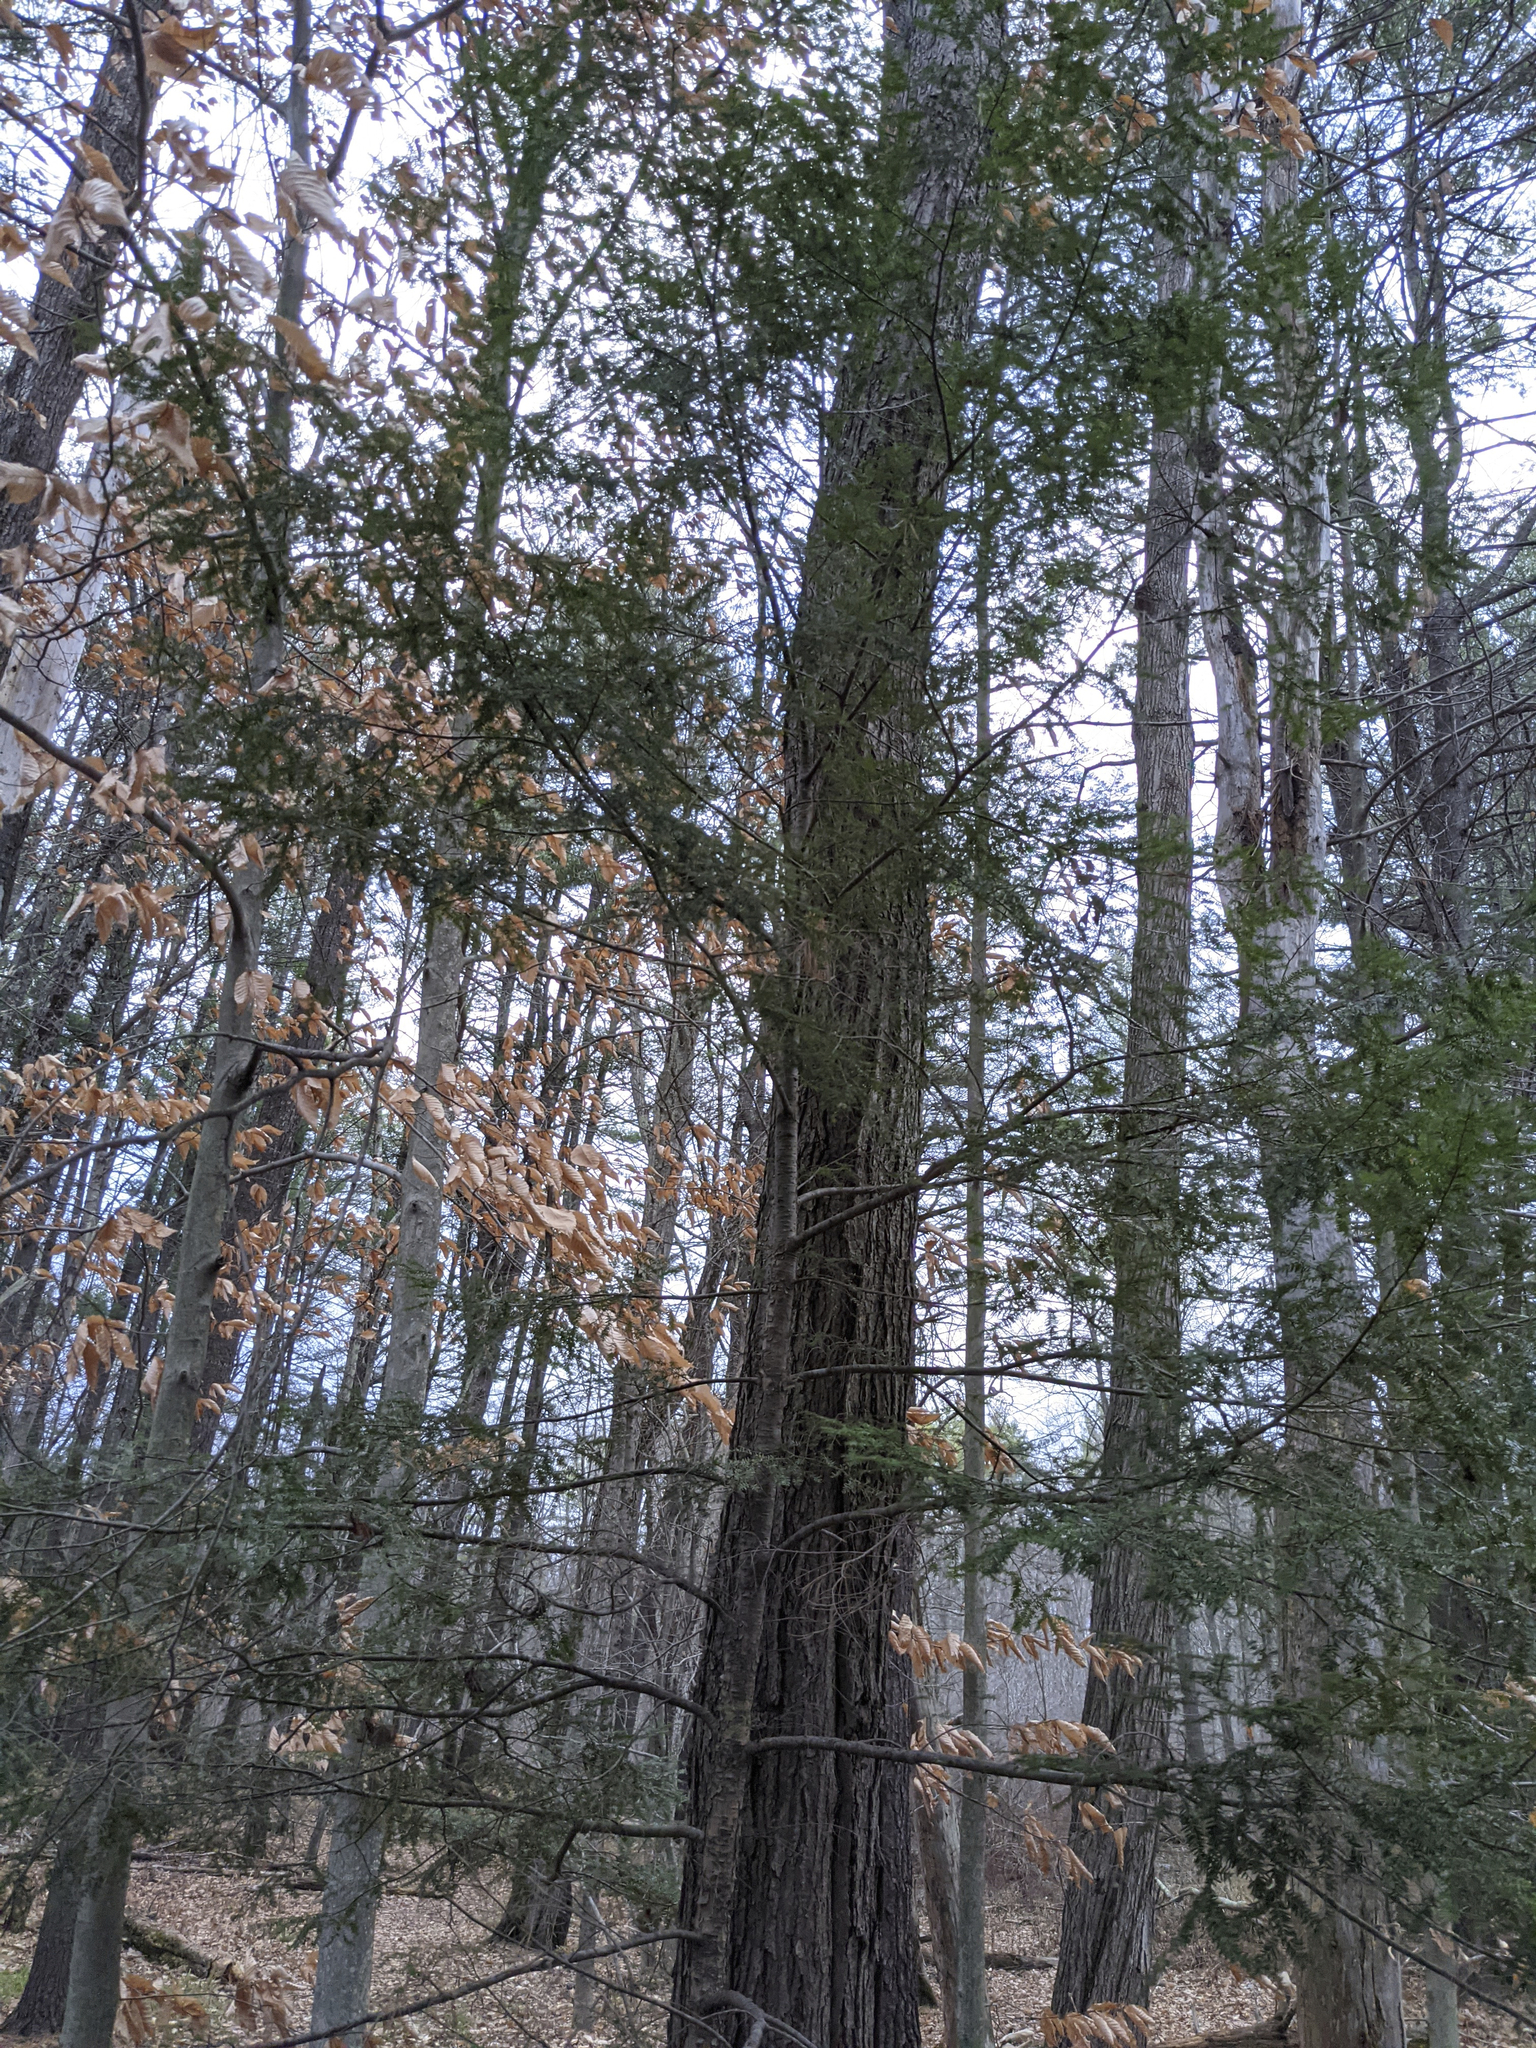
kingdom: Plantae
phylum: Tracheophyta
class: Pinopsida
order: Pinales
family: Pinaceae
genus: Tsuga
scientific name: Tsuga canadensis
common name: Eastern hemlock
